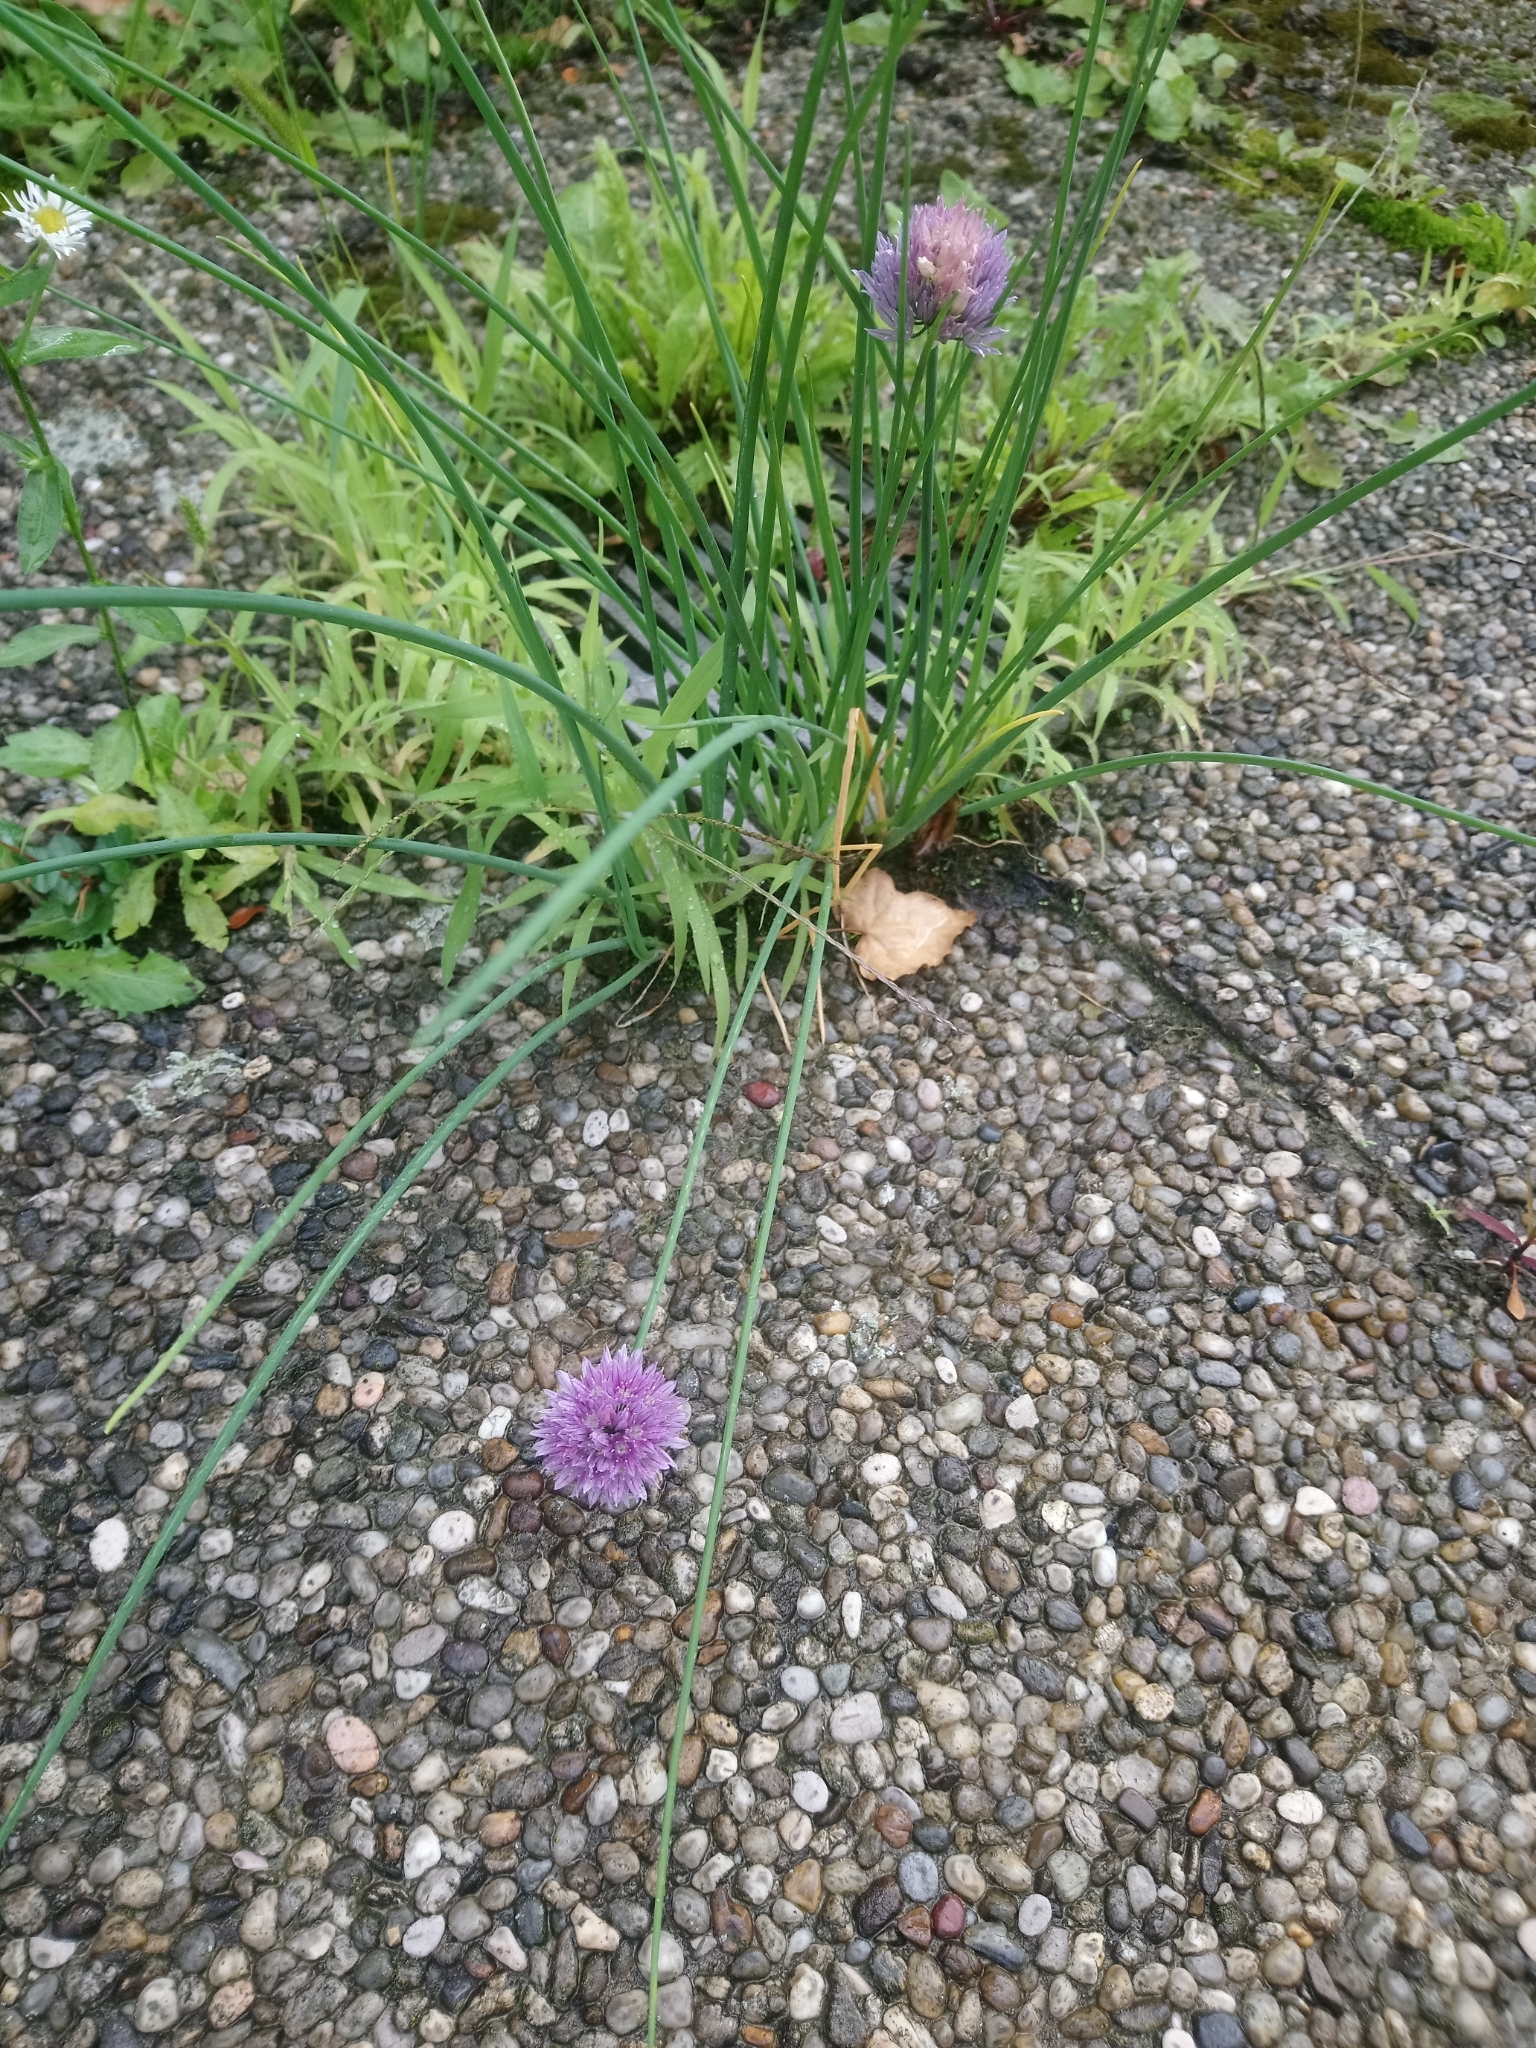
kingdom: Plantae
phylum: Tracheophyta
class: Liliopsida
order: Asparagales
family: Amaryllidaceae
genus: Allium
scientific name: Allium schoenoprasum
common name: Chives
